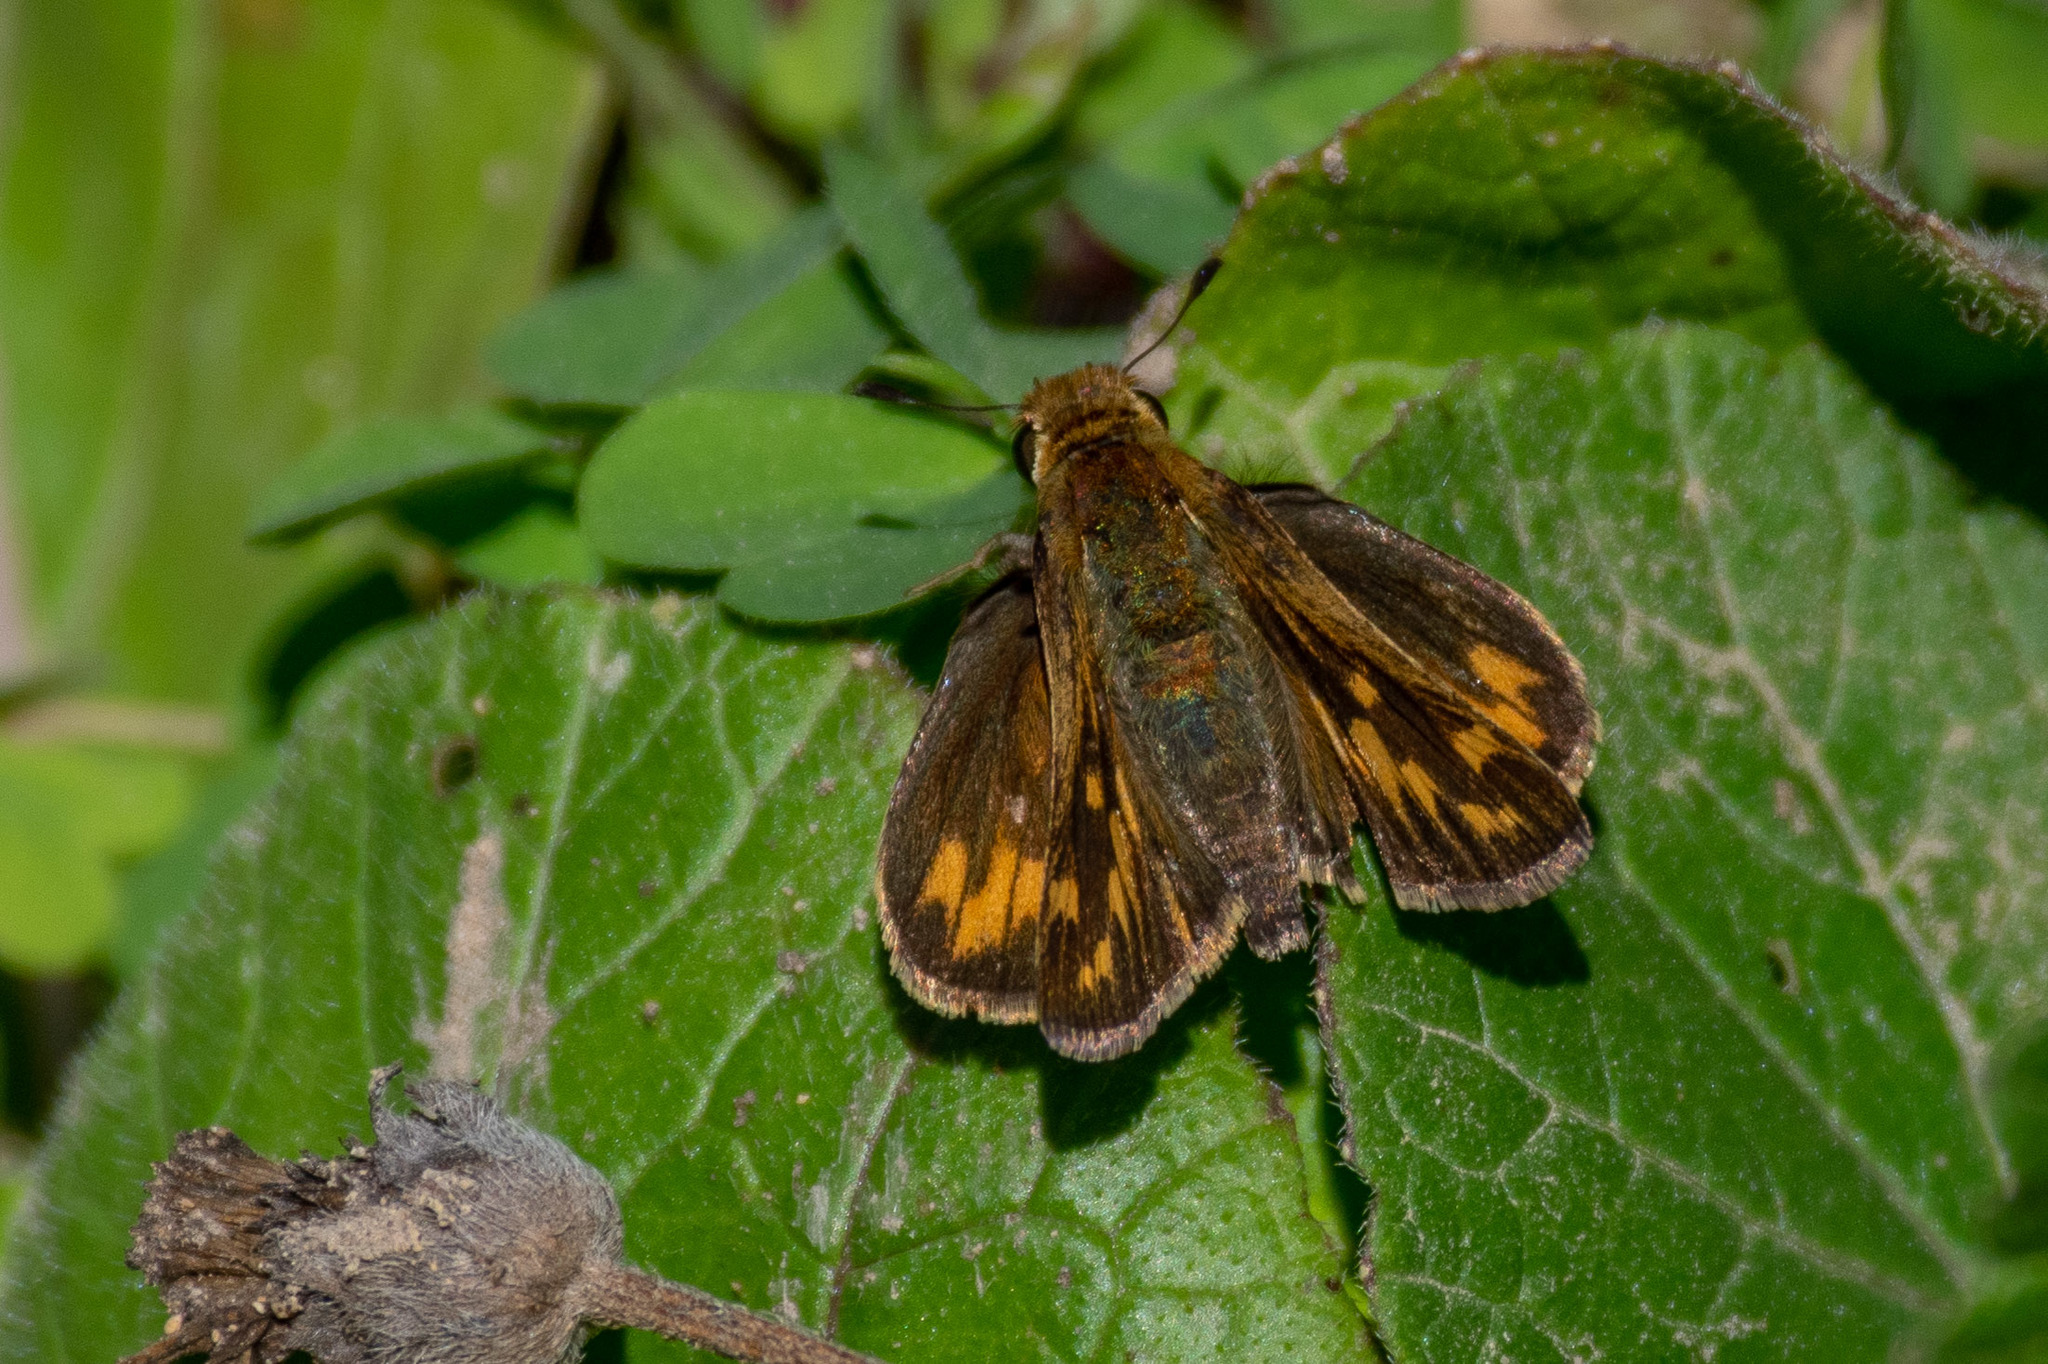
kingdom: Animalia
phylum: Arthropoda
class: Insecta
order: Lepidoptera
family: Hesperiidae
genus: Hylephila
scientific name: Hylephila phyleus
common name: Fiery skipper
